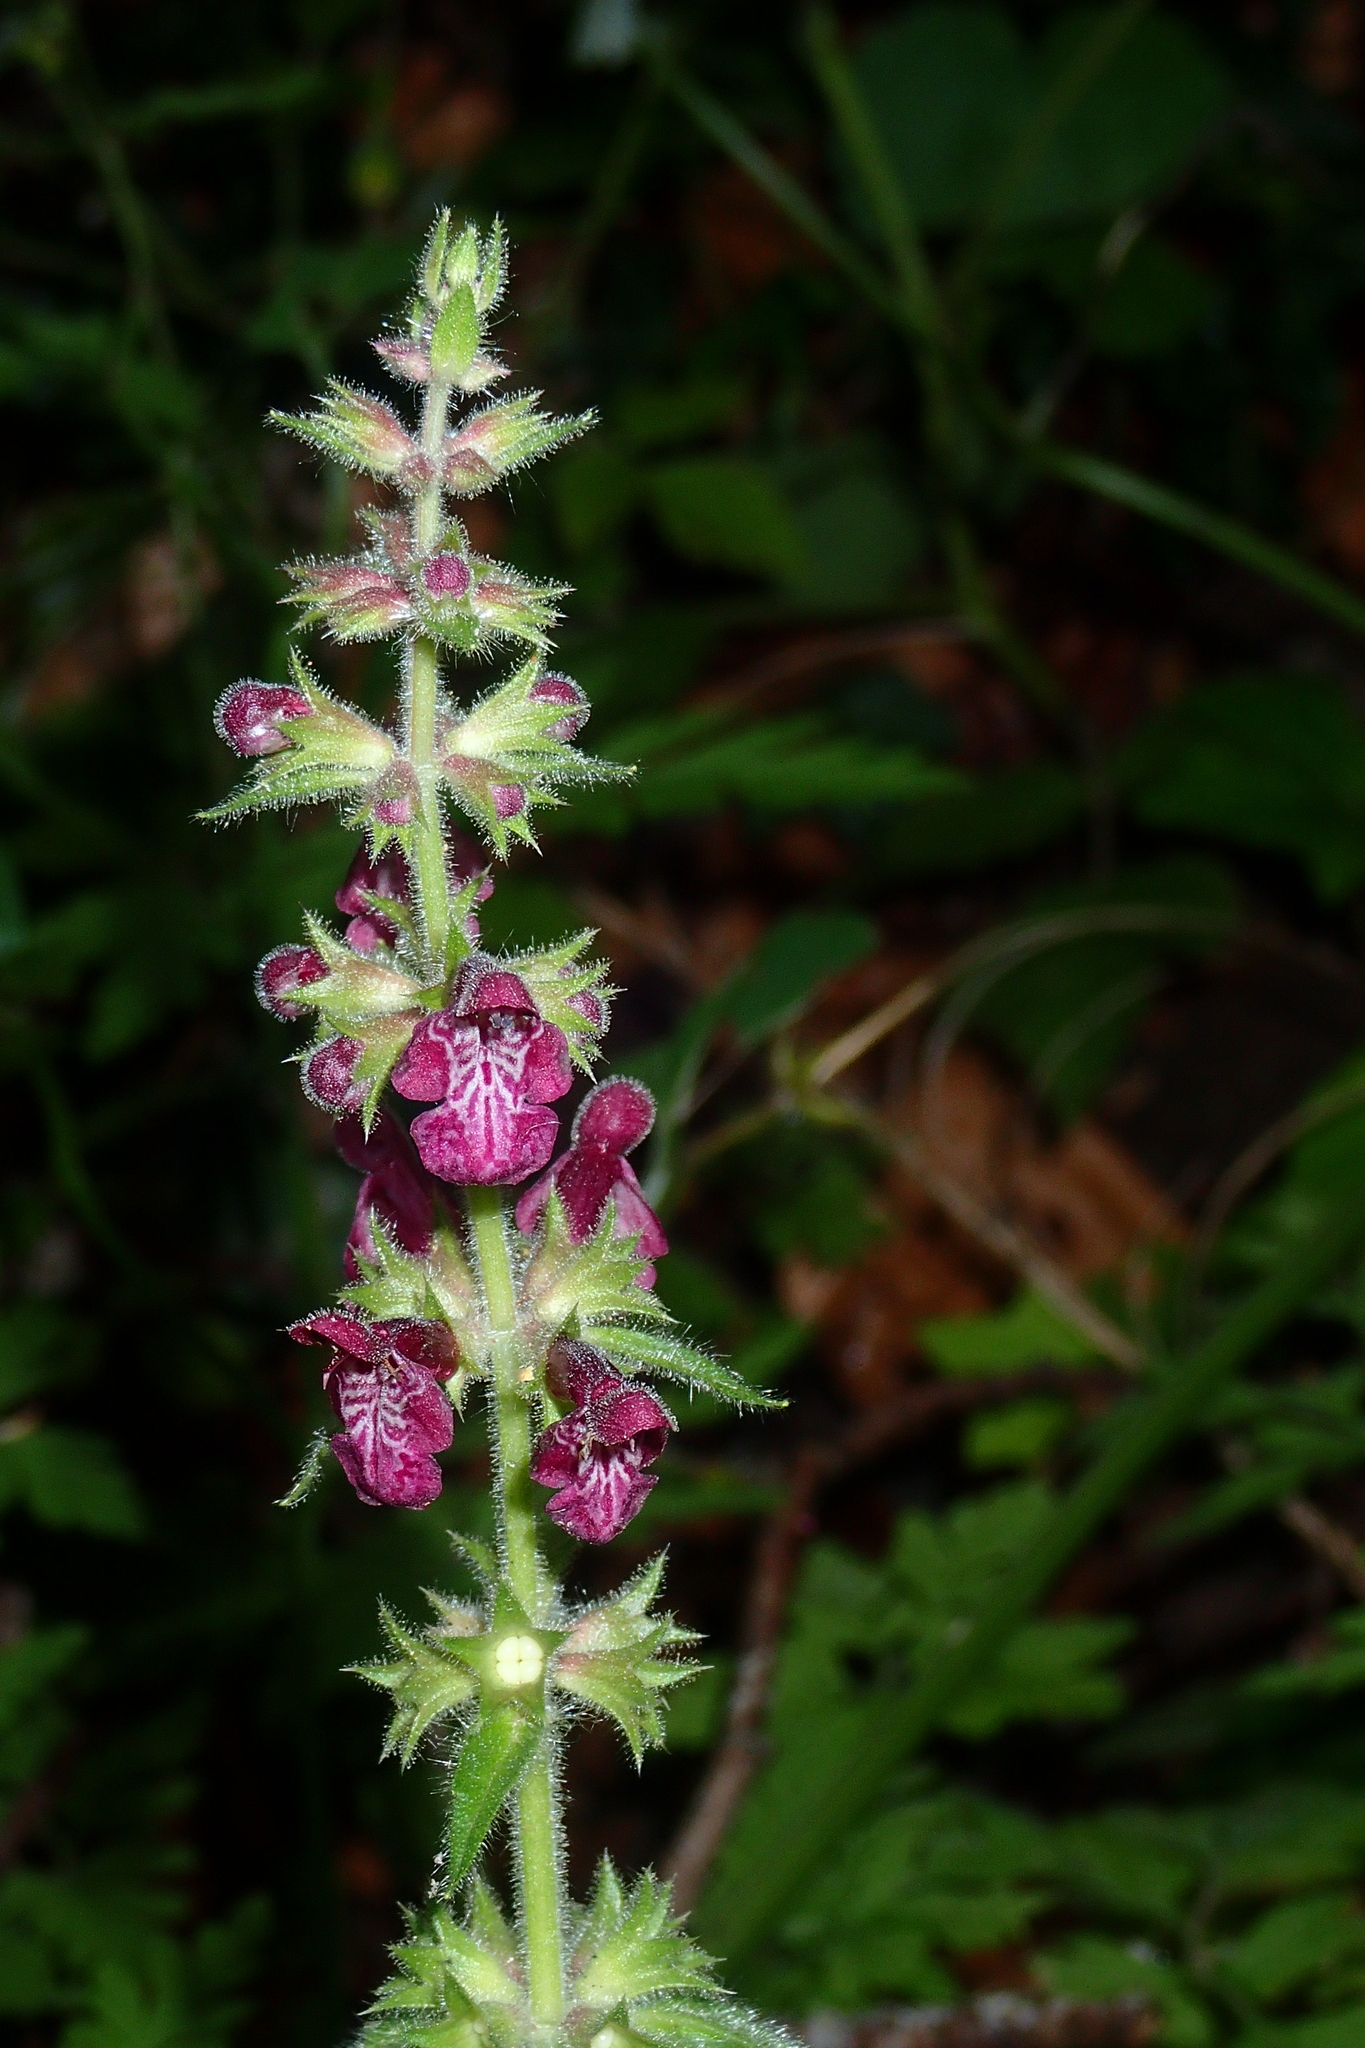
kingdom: Plantae
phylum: Tracheophyta
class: Magnoliopsida
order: Lamiales
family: Lamiaceae
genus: Stachys
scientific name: Stachys sylvatica
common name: Hedge woundwort
